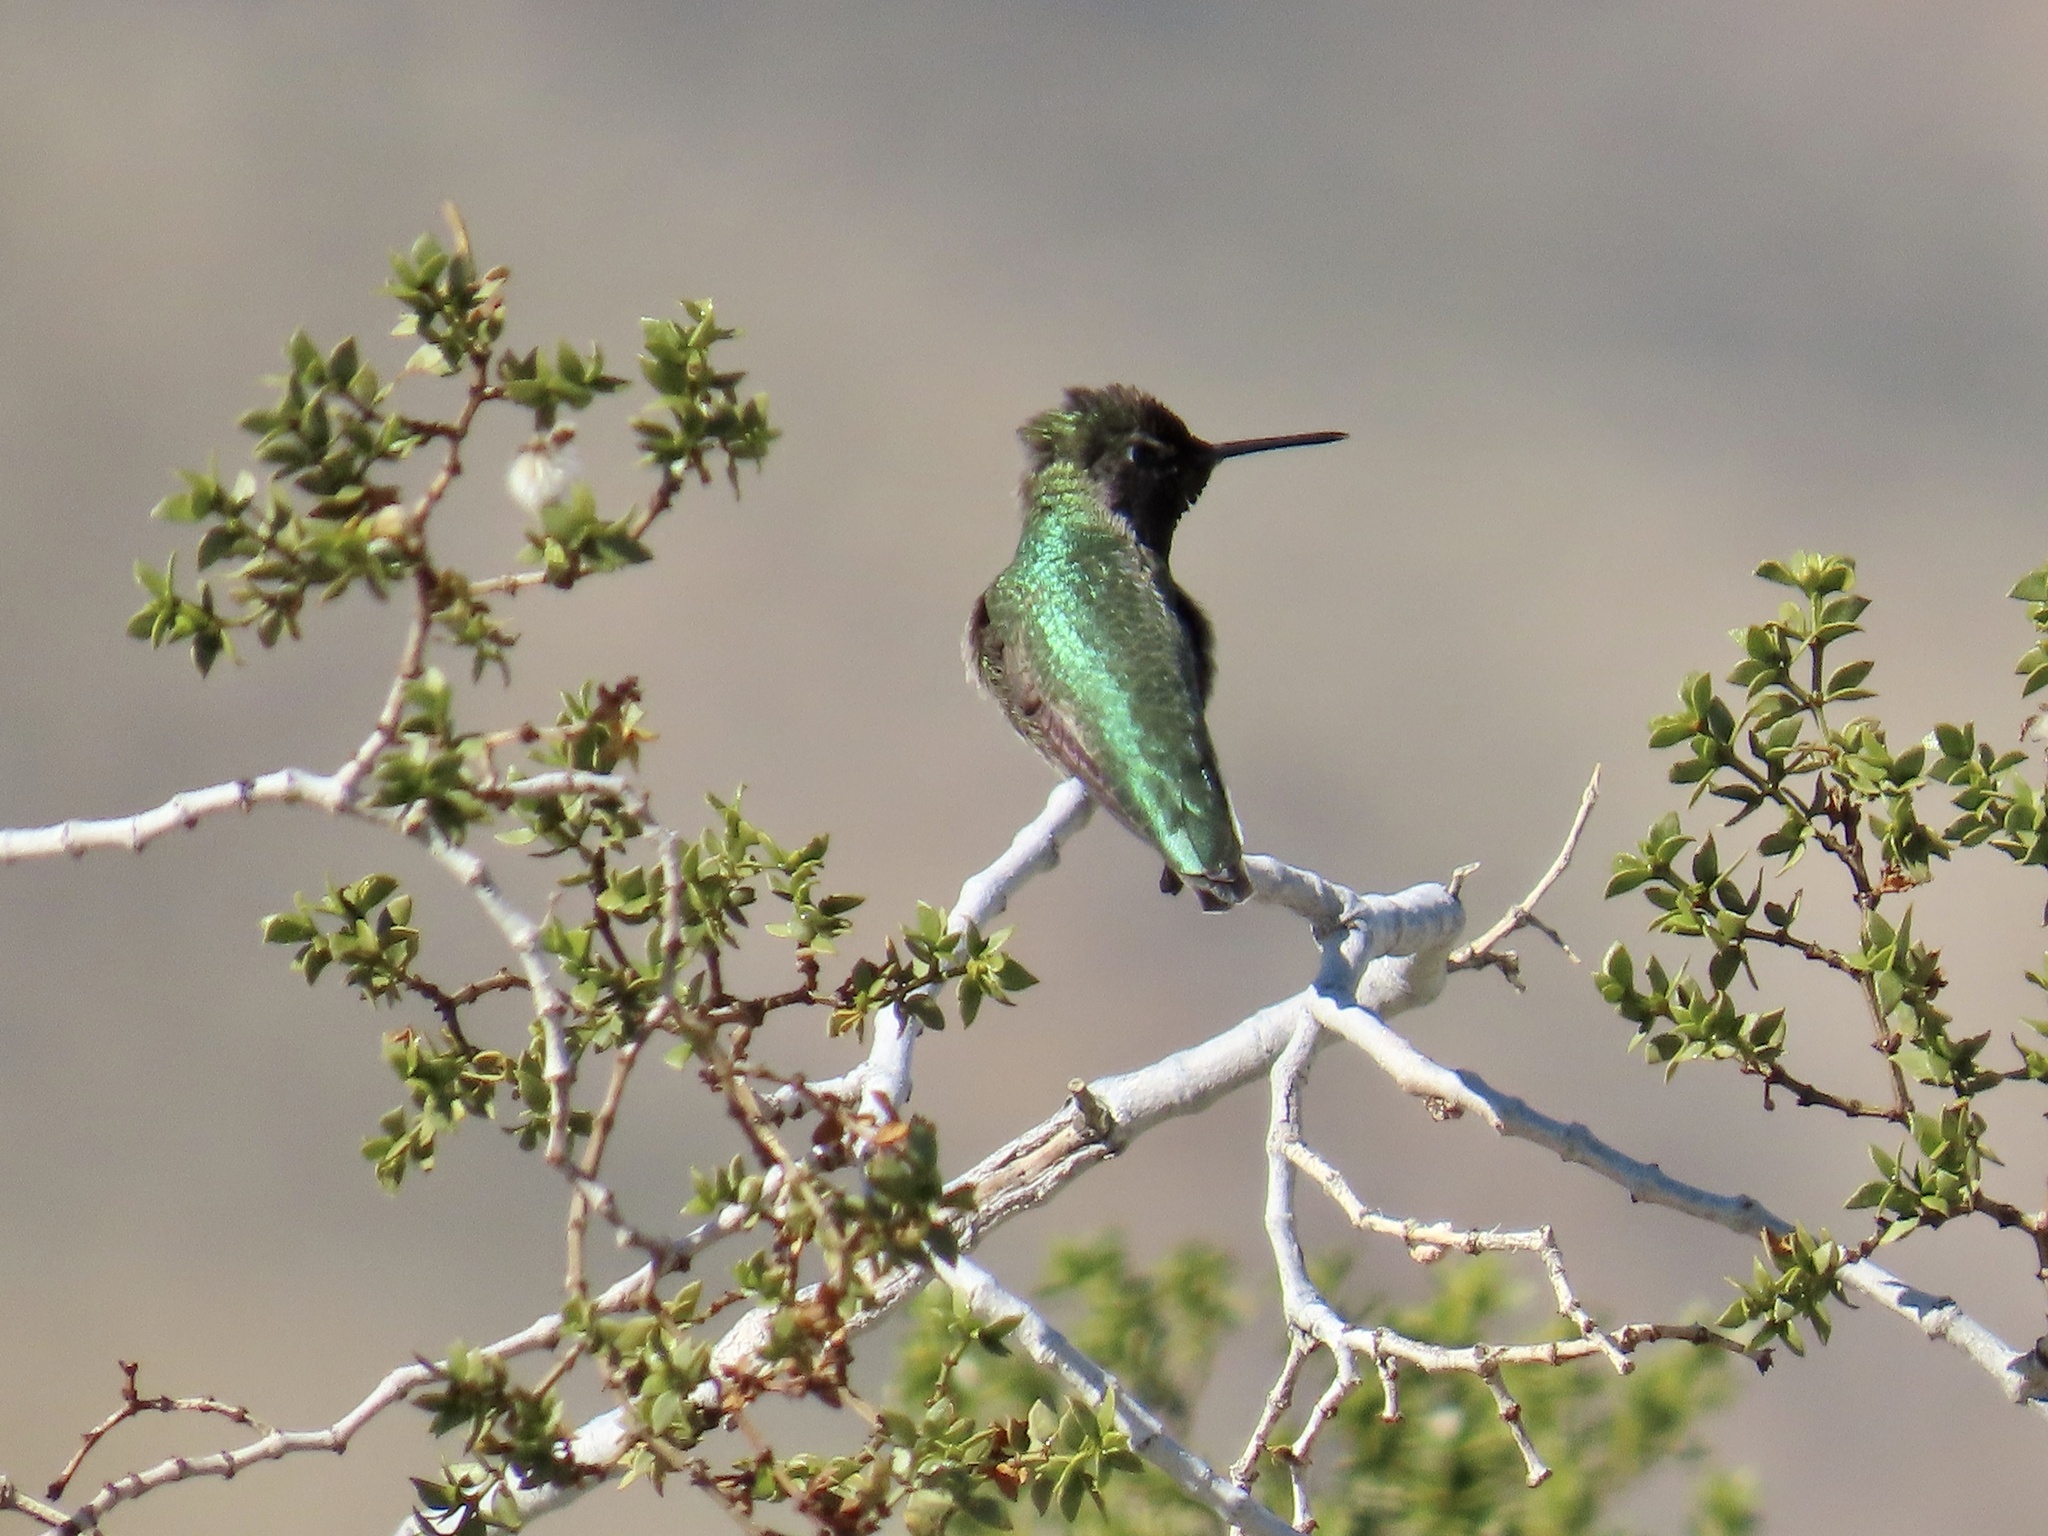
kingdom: Animalia
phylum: Chordata
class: Aves
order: Apodiformes
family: Trochilidae
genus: Calypte
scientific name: Calypte anna
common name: Anna's hummingbird
